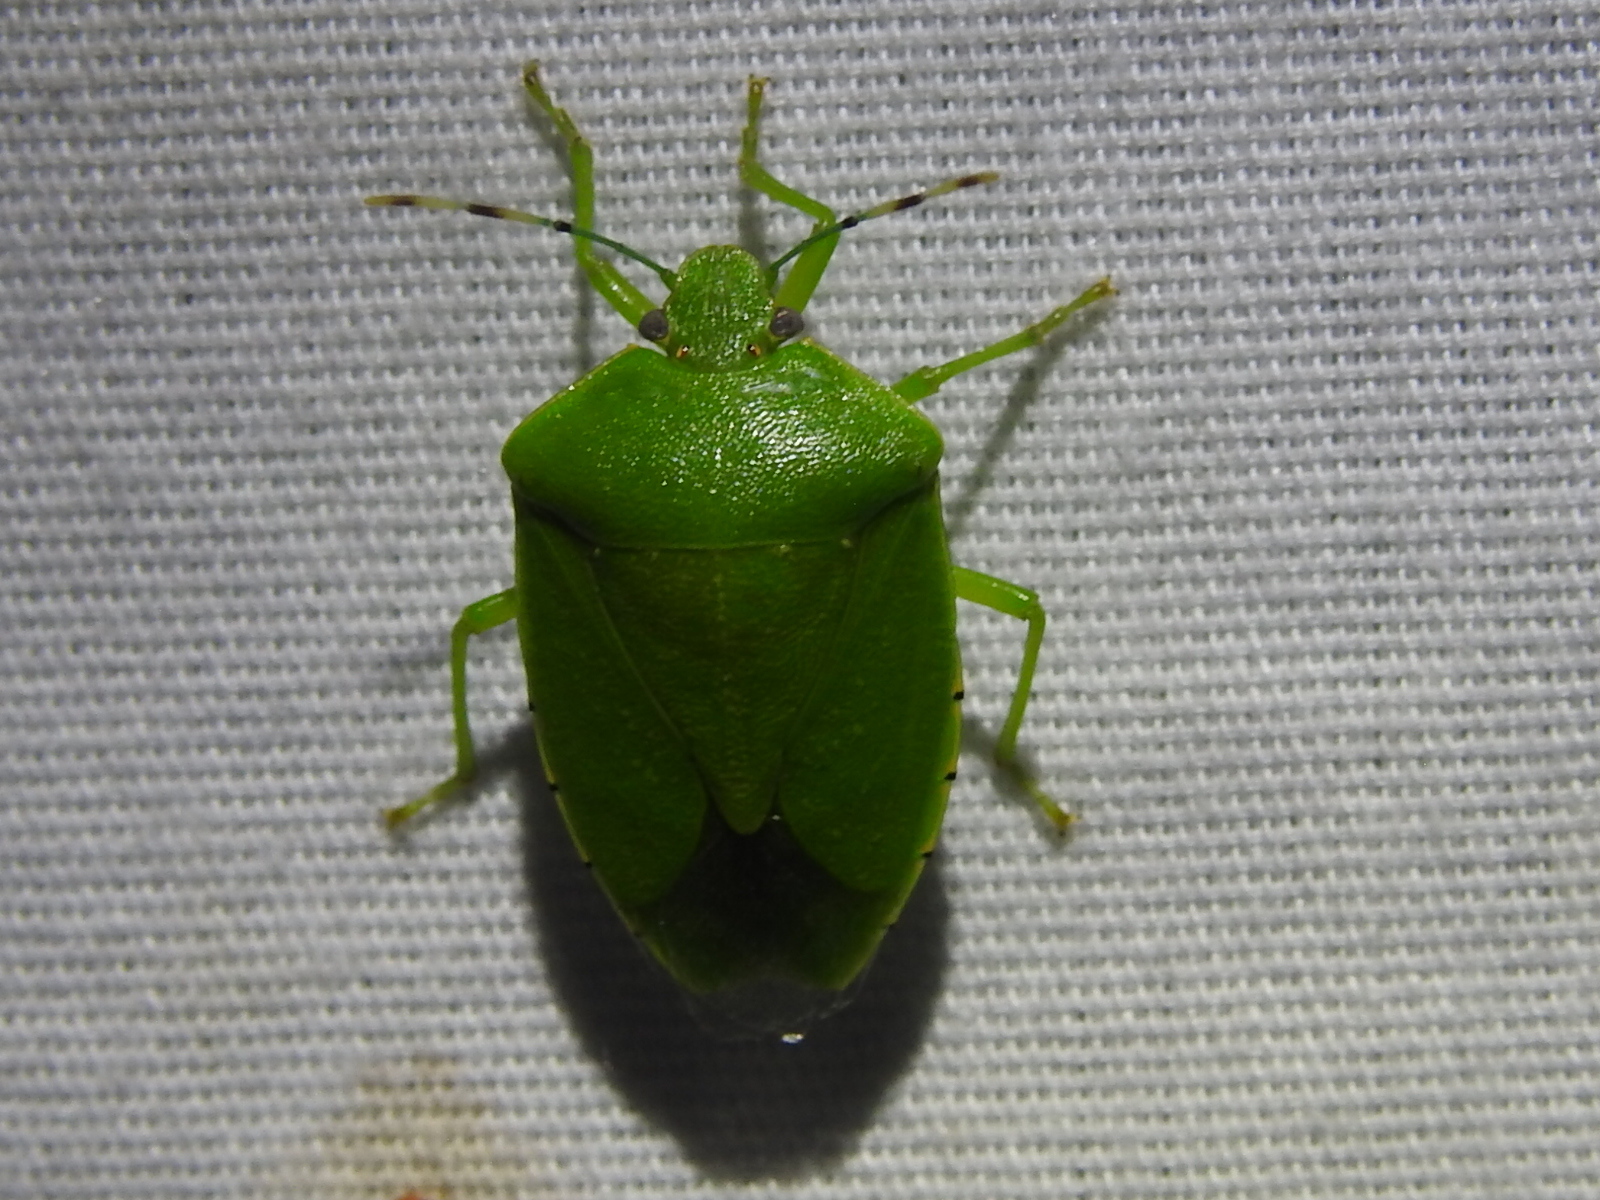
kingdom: Animalia
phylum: Arthropoda
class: Insecta
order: Hemiptera
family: Pentatomidae
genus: Chinavia
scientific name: Chinavia hilaris
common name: Green stink bug
